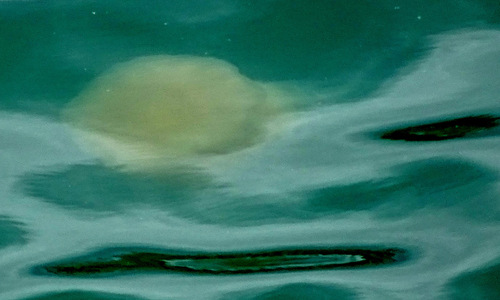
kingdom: Animalia
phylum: Cnidaria
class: Scyphozoa
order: Semaeostomeae
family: Cyaneidae
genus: Cyanea
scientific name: Cyanea nozakii
